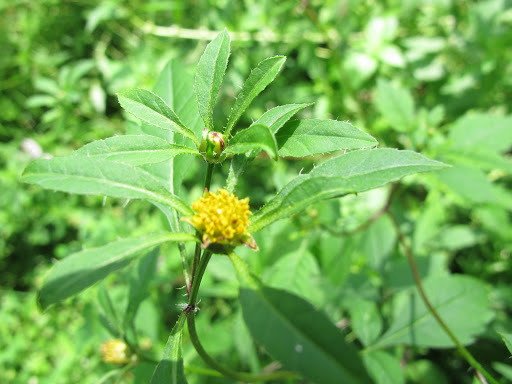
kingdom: Plantae
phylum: Tracheophyta
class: Magnoliopsida
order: Asterales
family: Asteraceae
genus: Bidens
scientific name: Bidens frondosa
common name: Beggarticks
